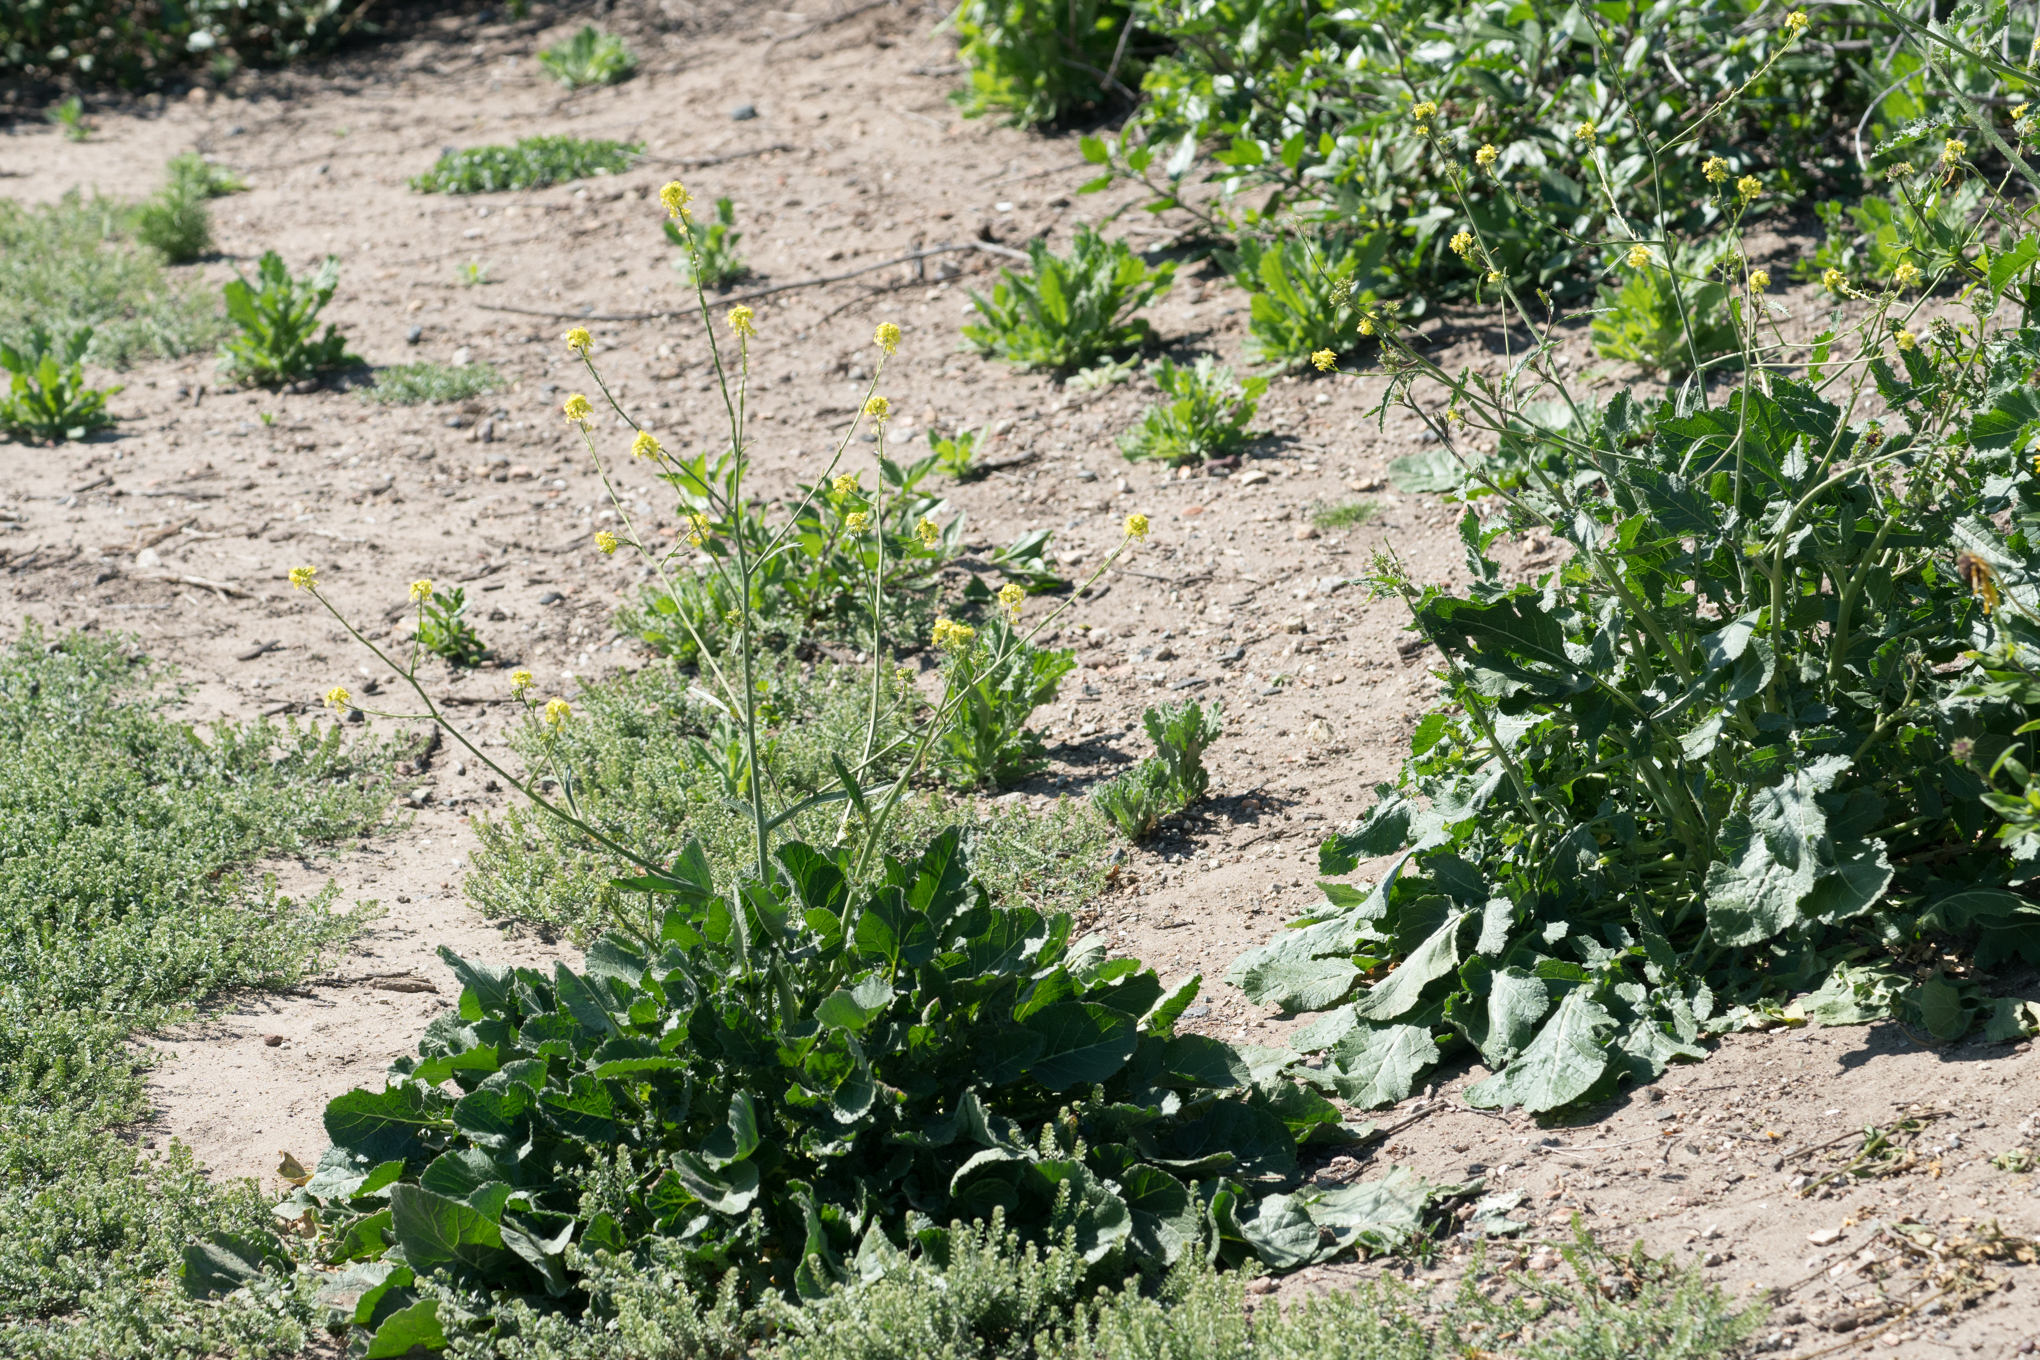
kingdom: Plantae
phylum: Tracheophyta
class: Magnoliopsida
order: Brassicales
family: Brassicaceae
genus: Hirschfeldia
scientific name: Hirschfeldia incana
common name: Hoary mustard
